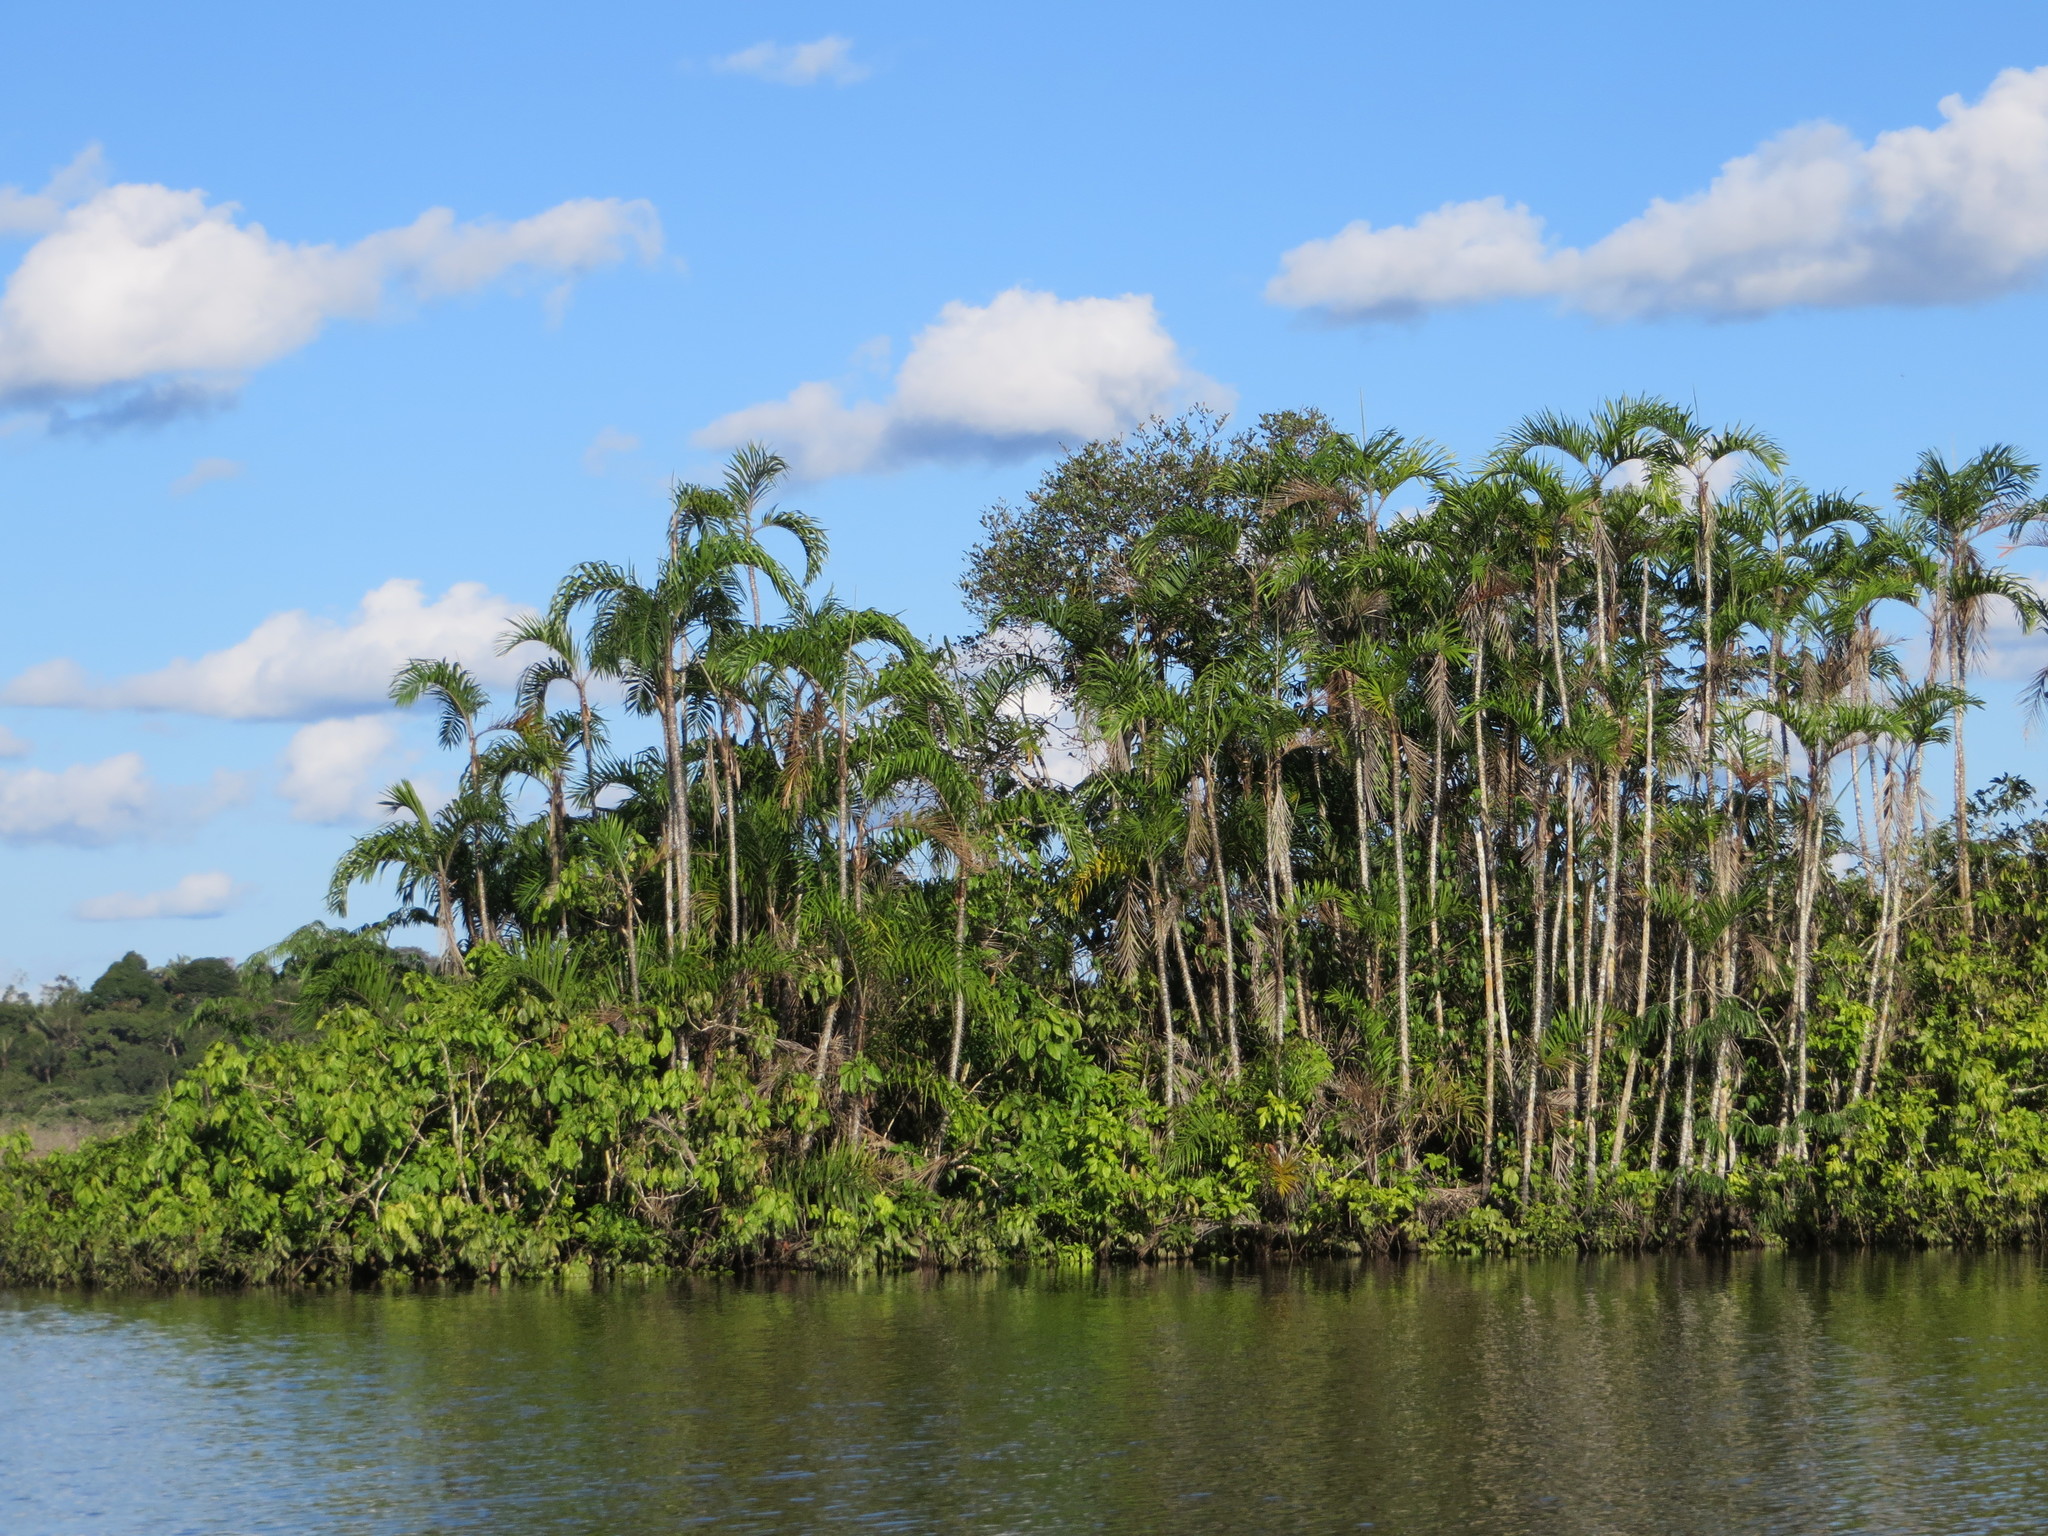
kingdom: Plantae
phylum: Tracheophyta
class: Liliopsida
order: Arecales
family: Arecaceae
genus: Bactris
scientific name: Bactris riparia
